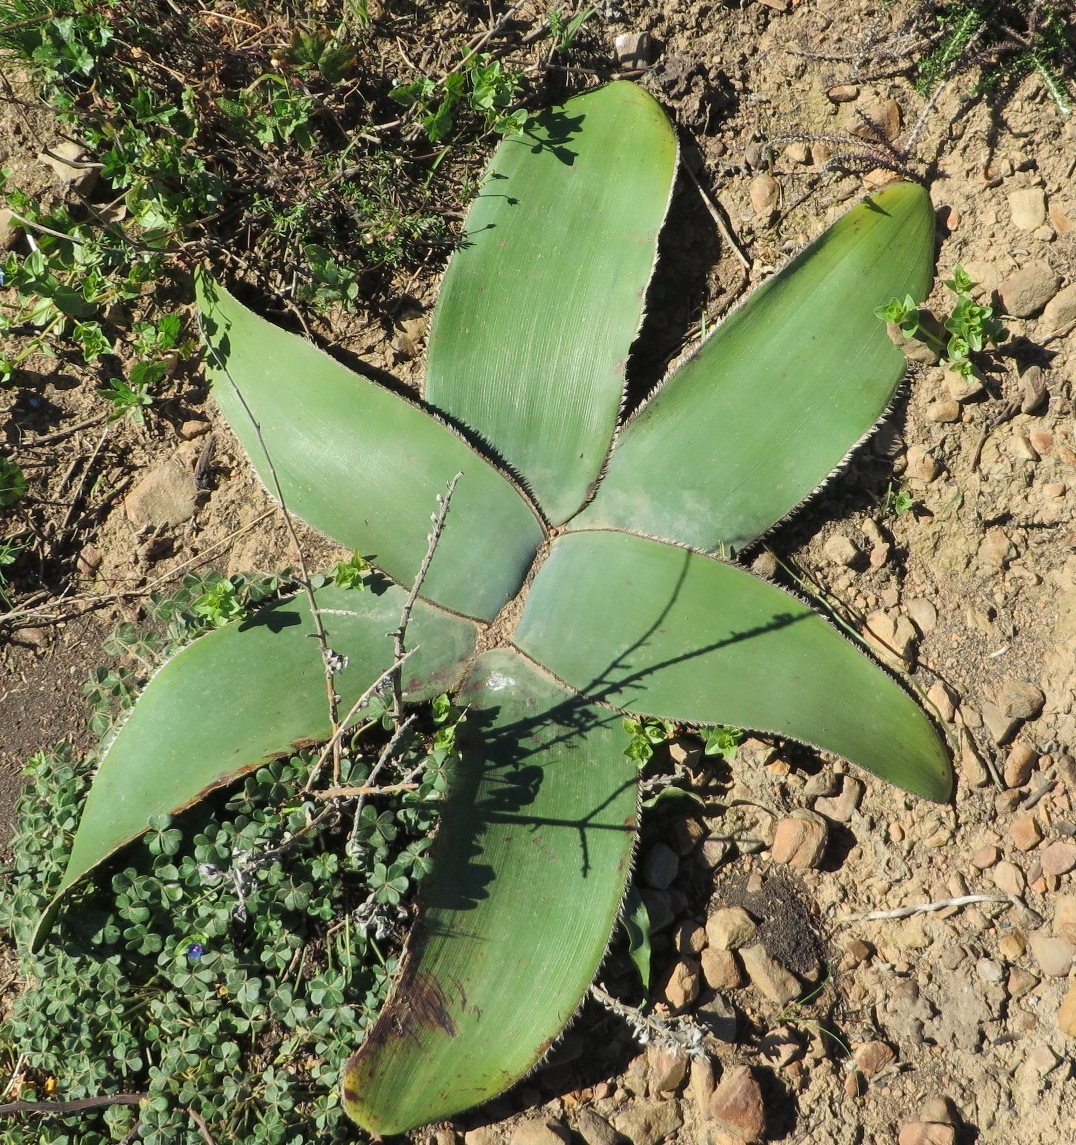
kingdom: Plantae
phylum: Tracheophyta
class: Liliopsida
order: Asparagales
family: Amaryllidaceae
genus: Crossyne
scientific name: Crossyne guttata
